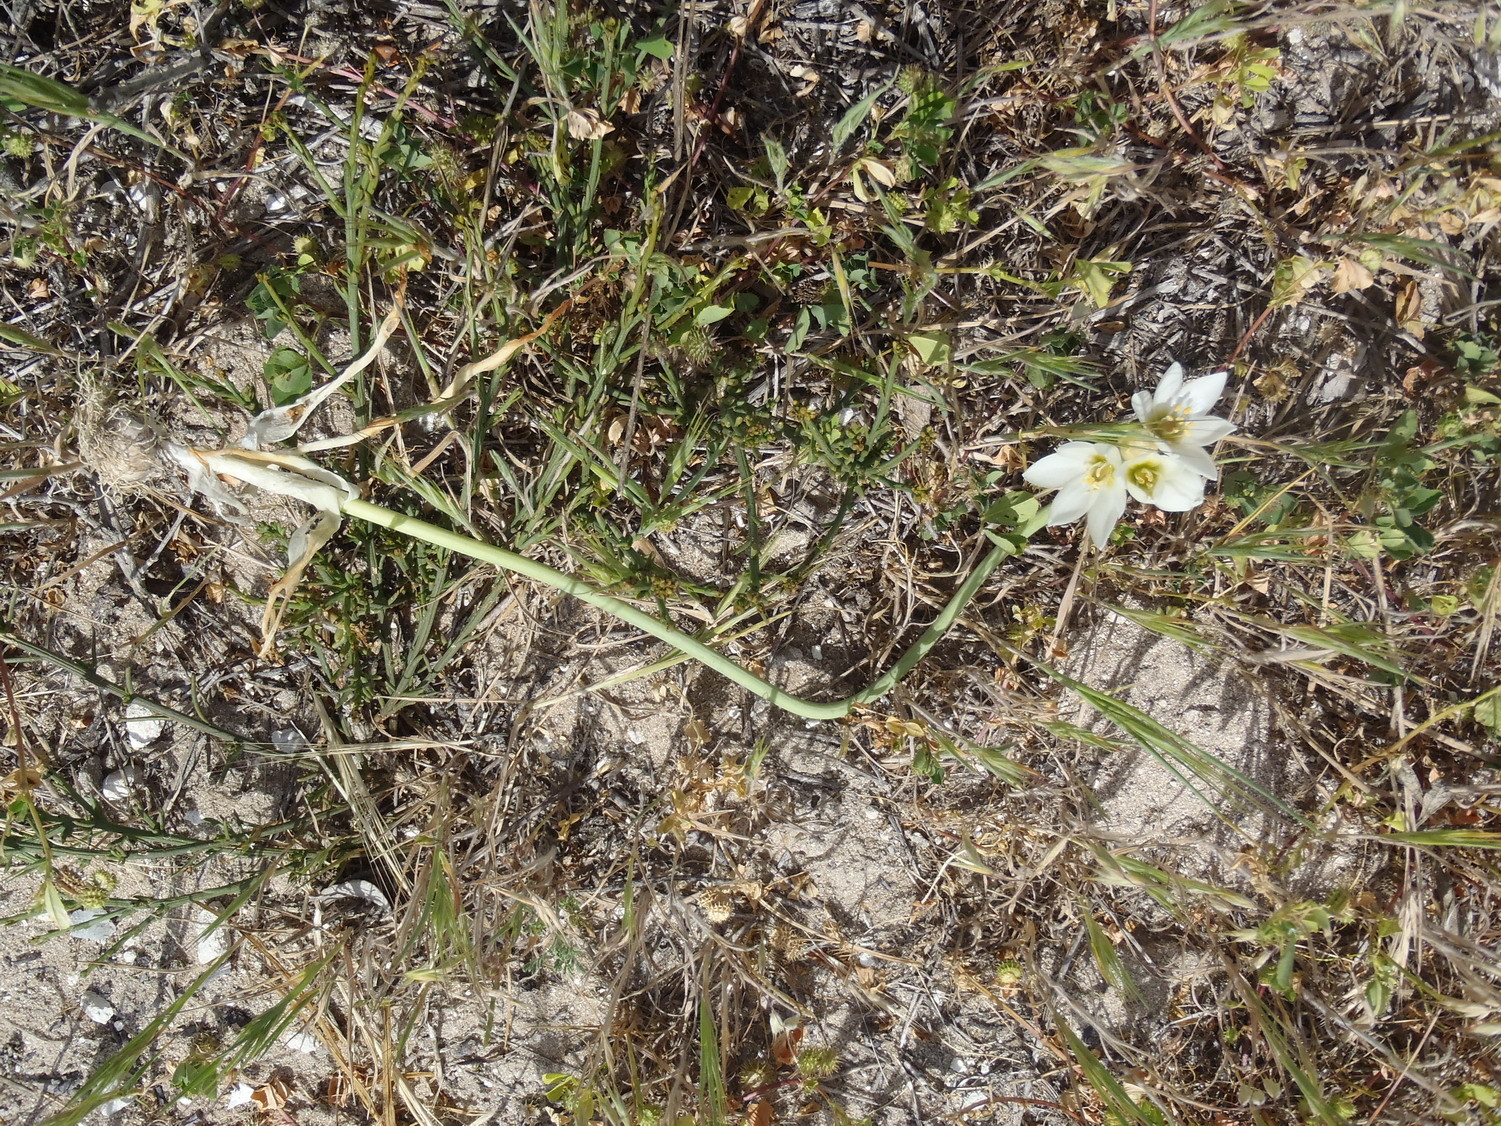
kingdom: Plantae
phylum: Tracheophyta
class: Liliopsida
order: Asparagales
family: Asparagaceae
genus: Ornithogalum
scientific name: Ornithogalum thyrsoides
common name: Chincherinchee
